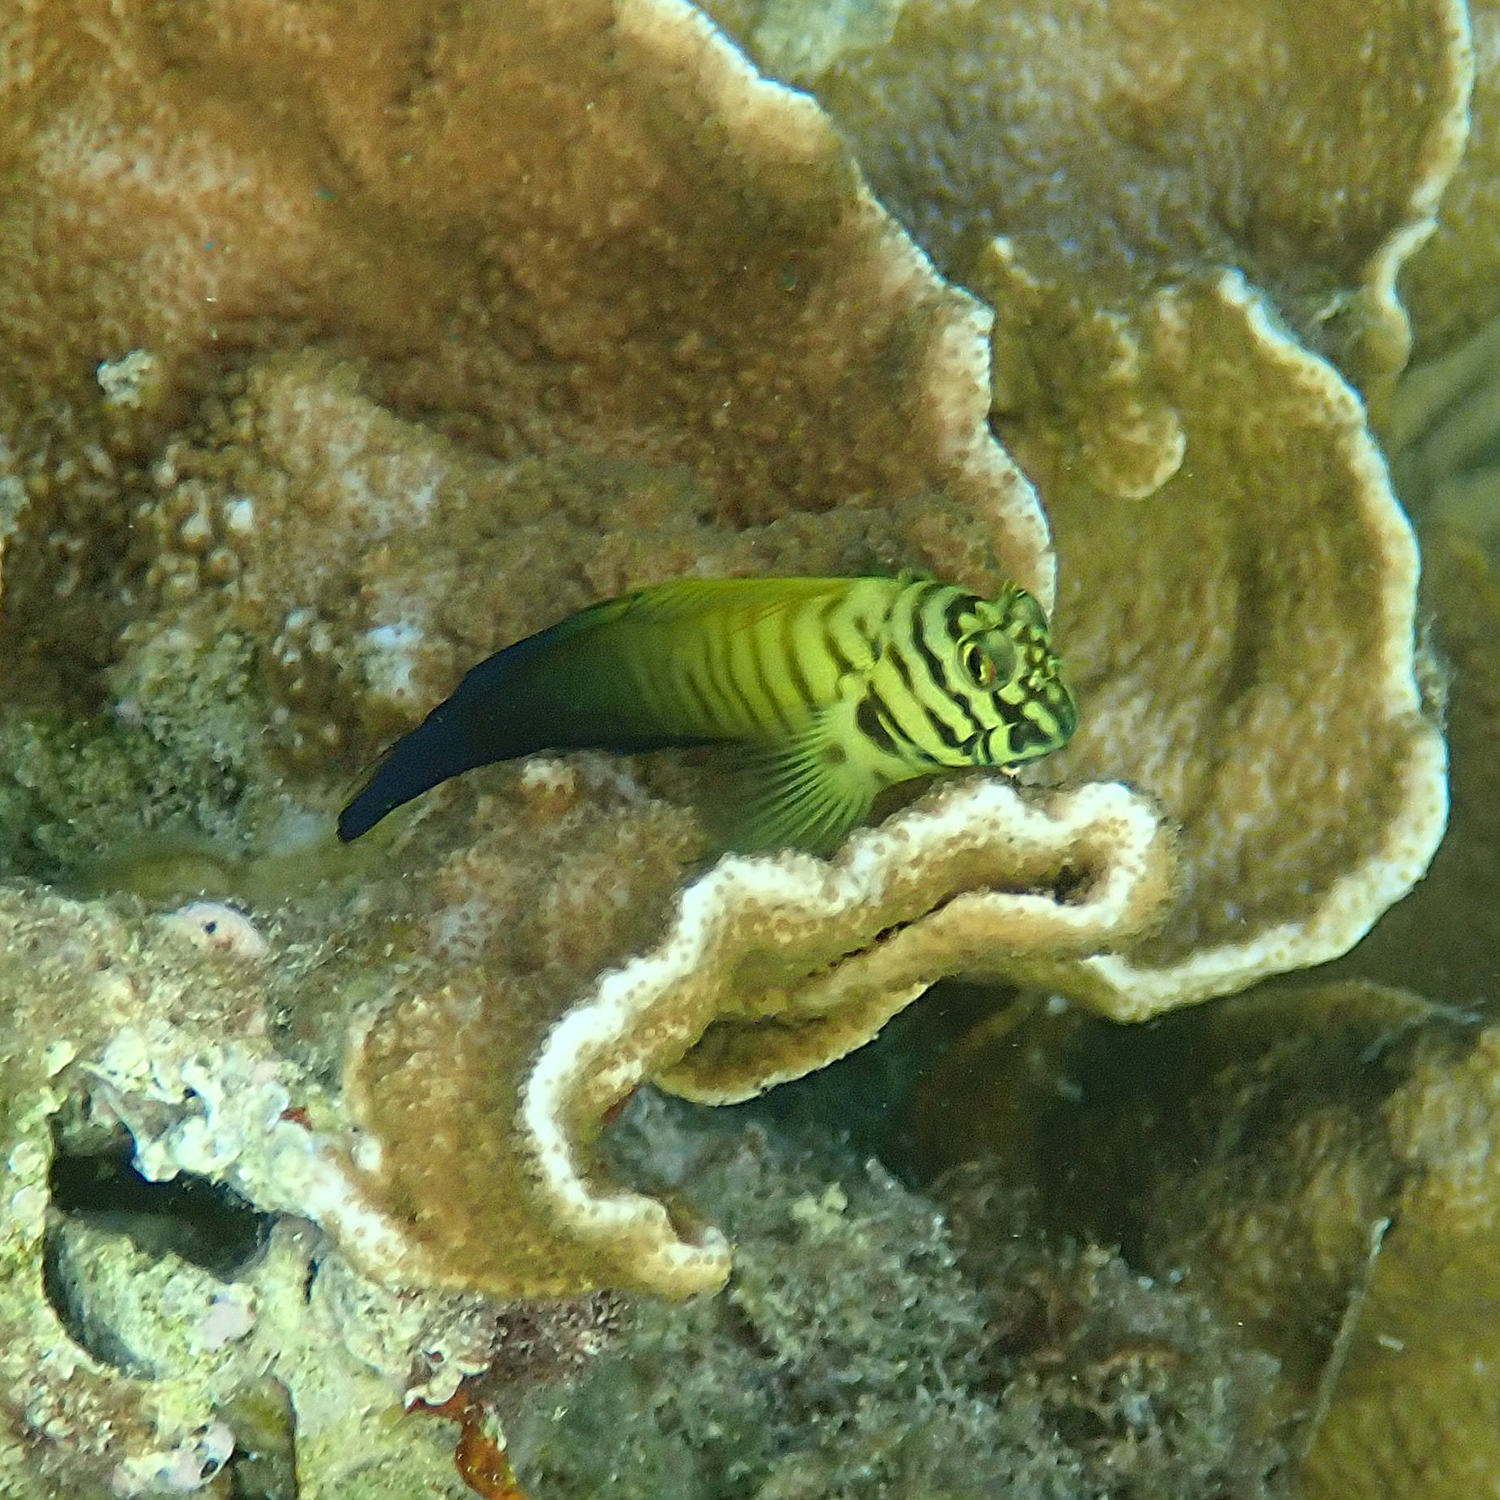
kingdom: Animalia
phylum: Chordata
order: Perciformes
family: Blenniidae
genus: Cirripectes
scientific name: Cirripectes castaneus
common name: Chestnut blenny
